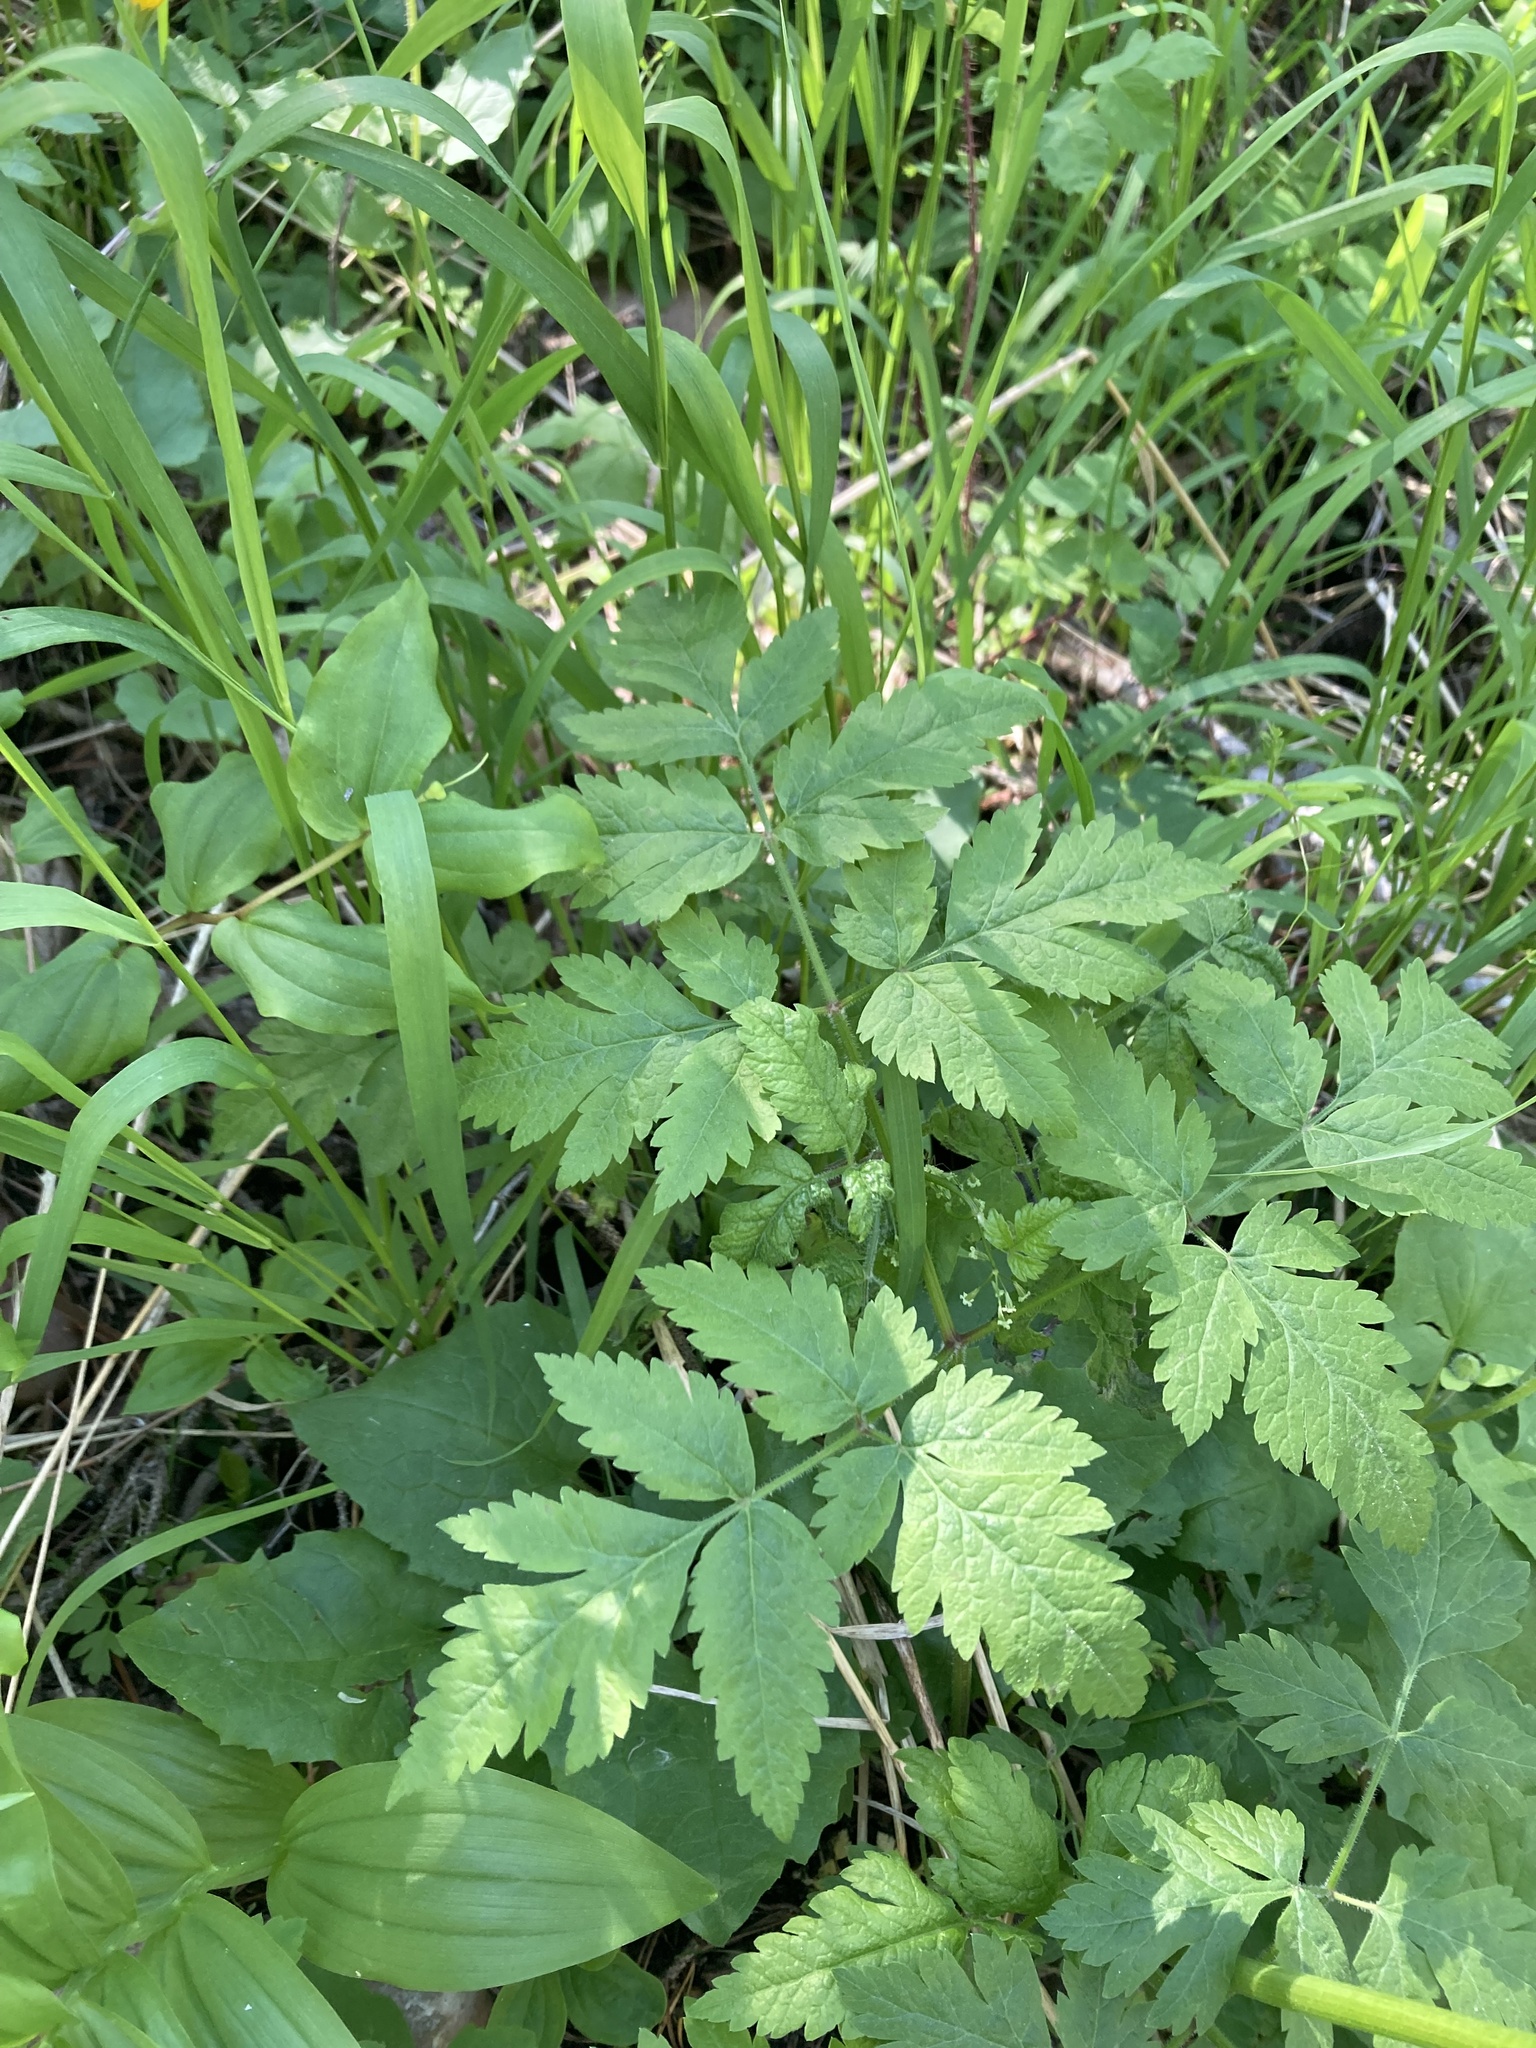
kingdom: Plantae
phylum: Tracheophyta
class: Magnoliopsida
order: Apiales
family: Apiaceae
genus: Osmorhiza
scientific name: Osmorhiza berteroi
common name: Mountain sweet cicely
